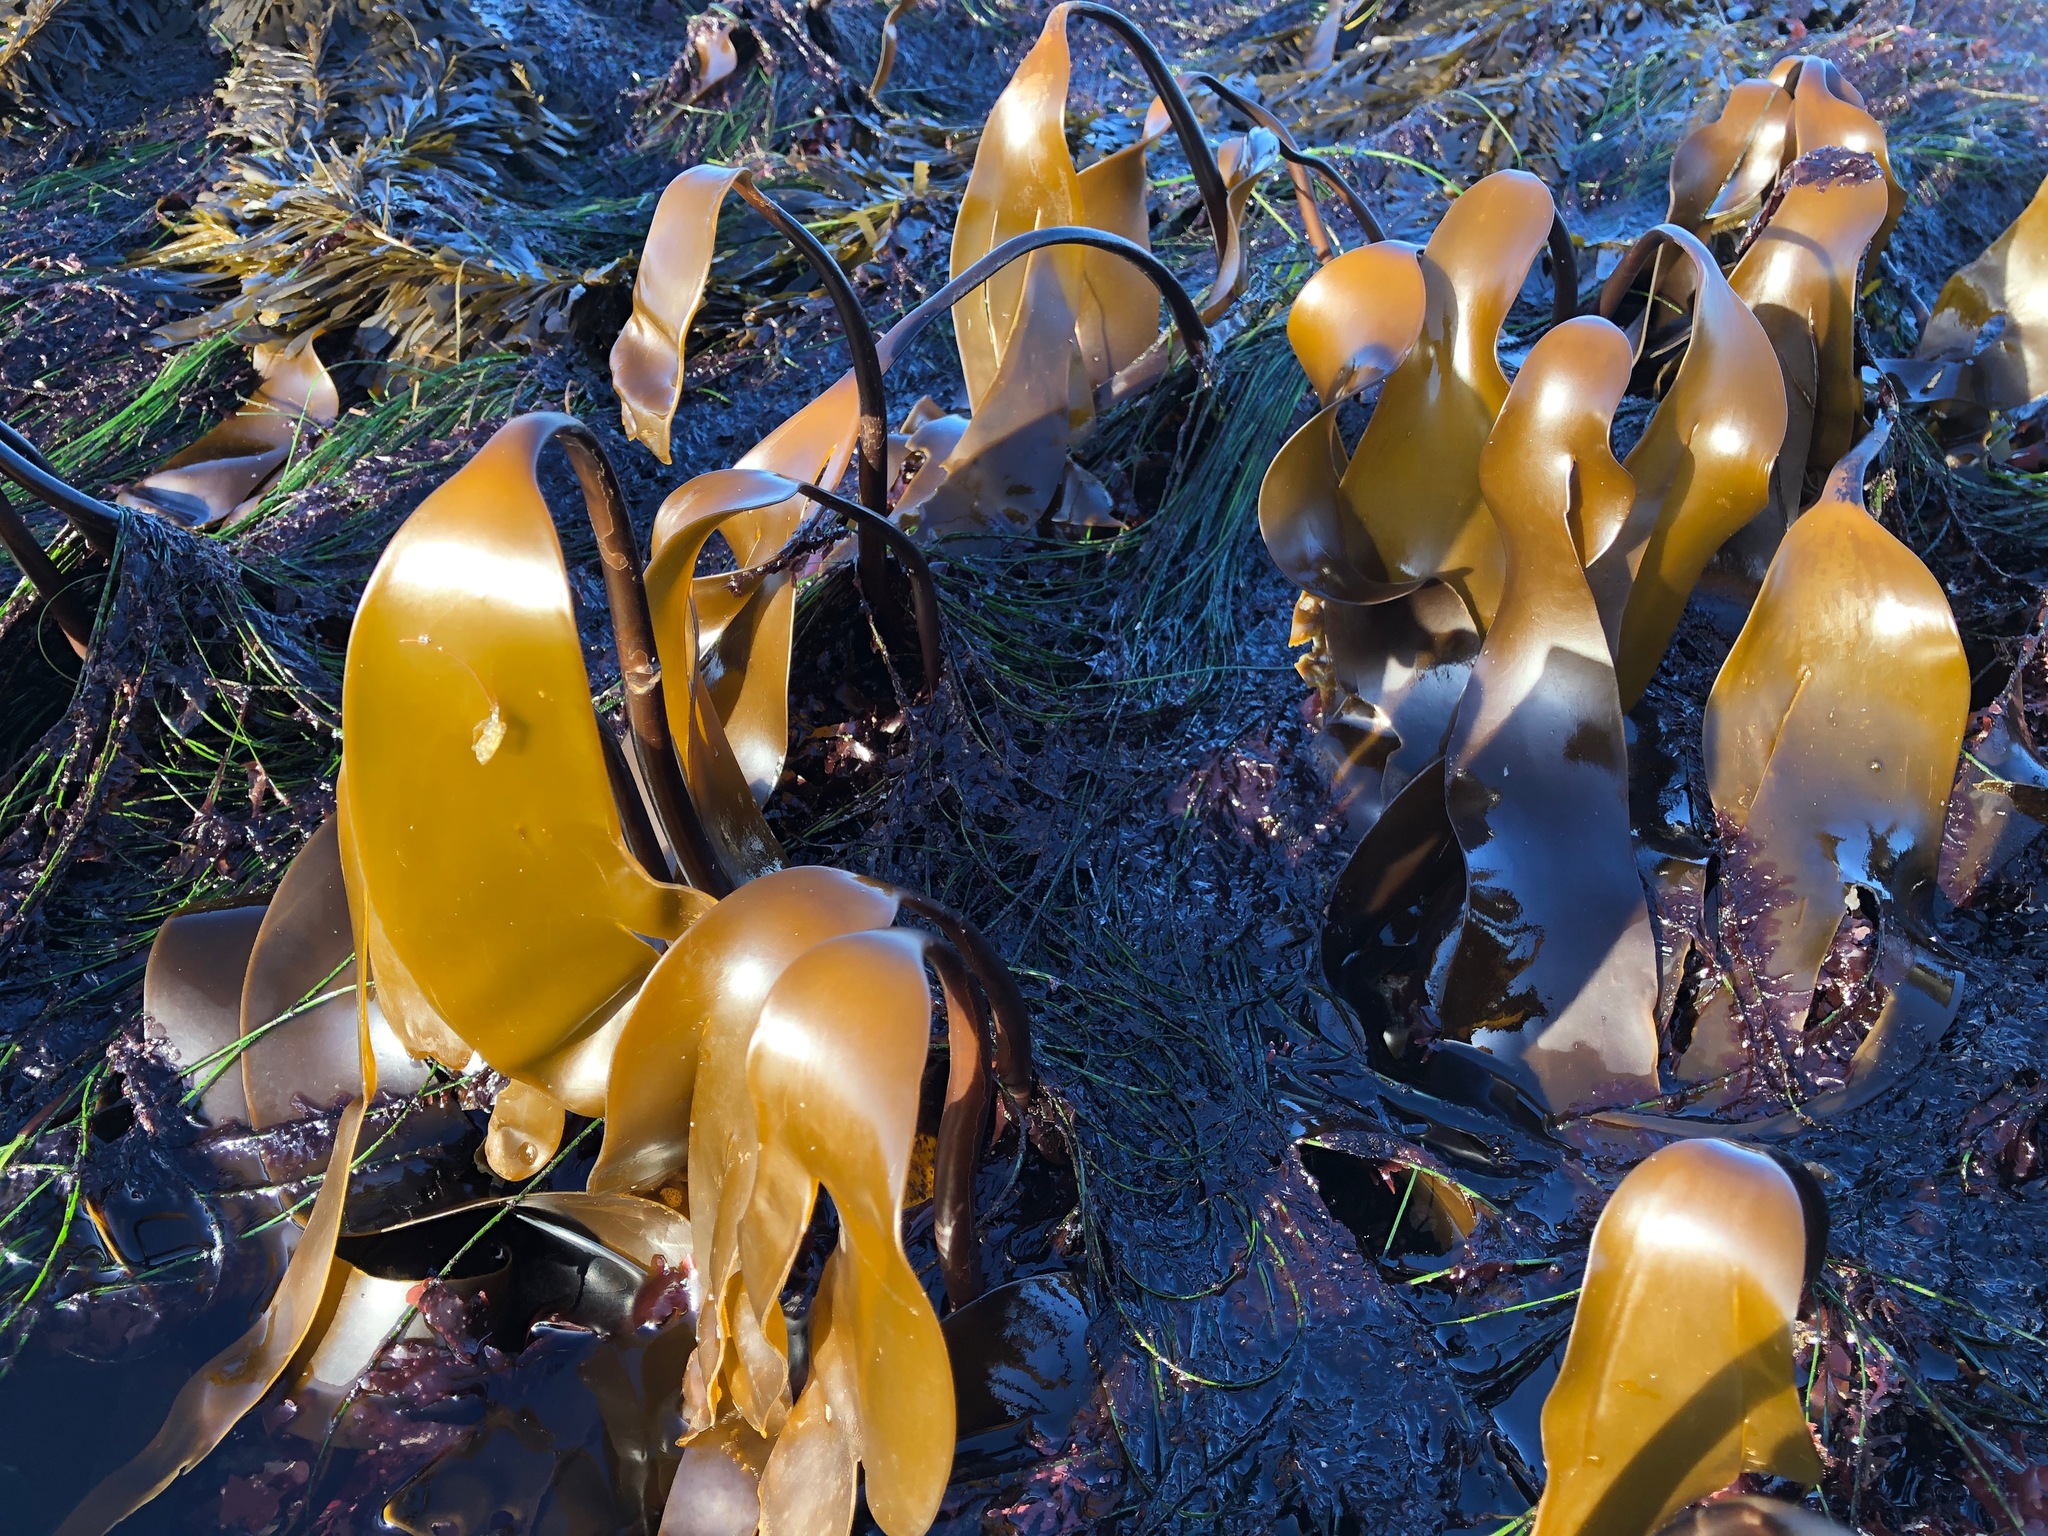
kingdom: Chromista
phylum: Ochrophyta
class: Phaeophyceae
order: Laminariales
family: Laminariaceae
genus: Laminaria
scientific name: Laminaria setchellii
